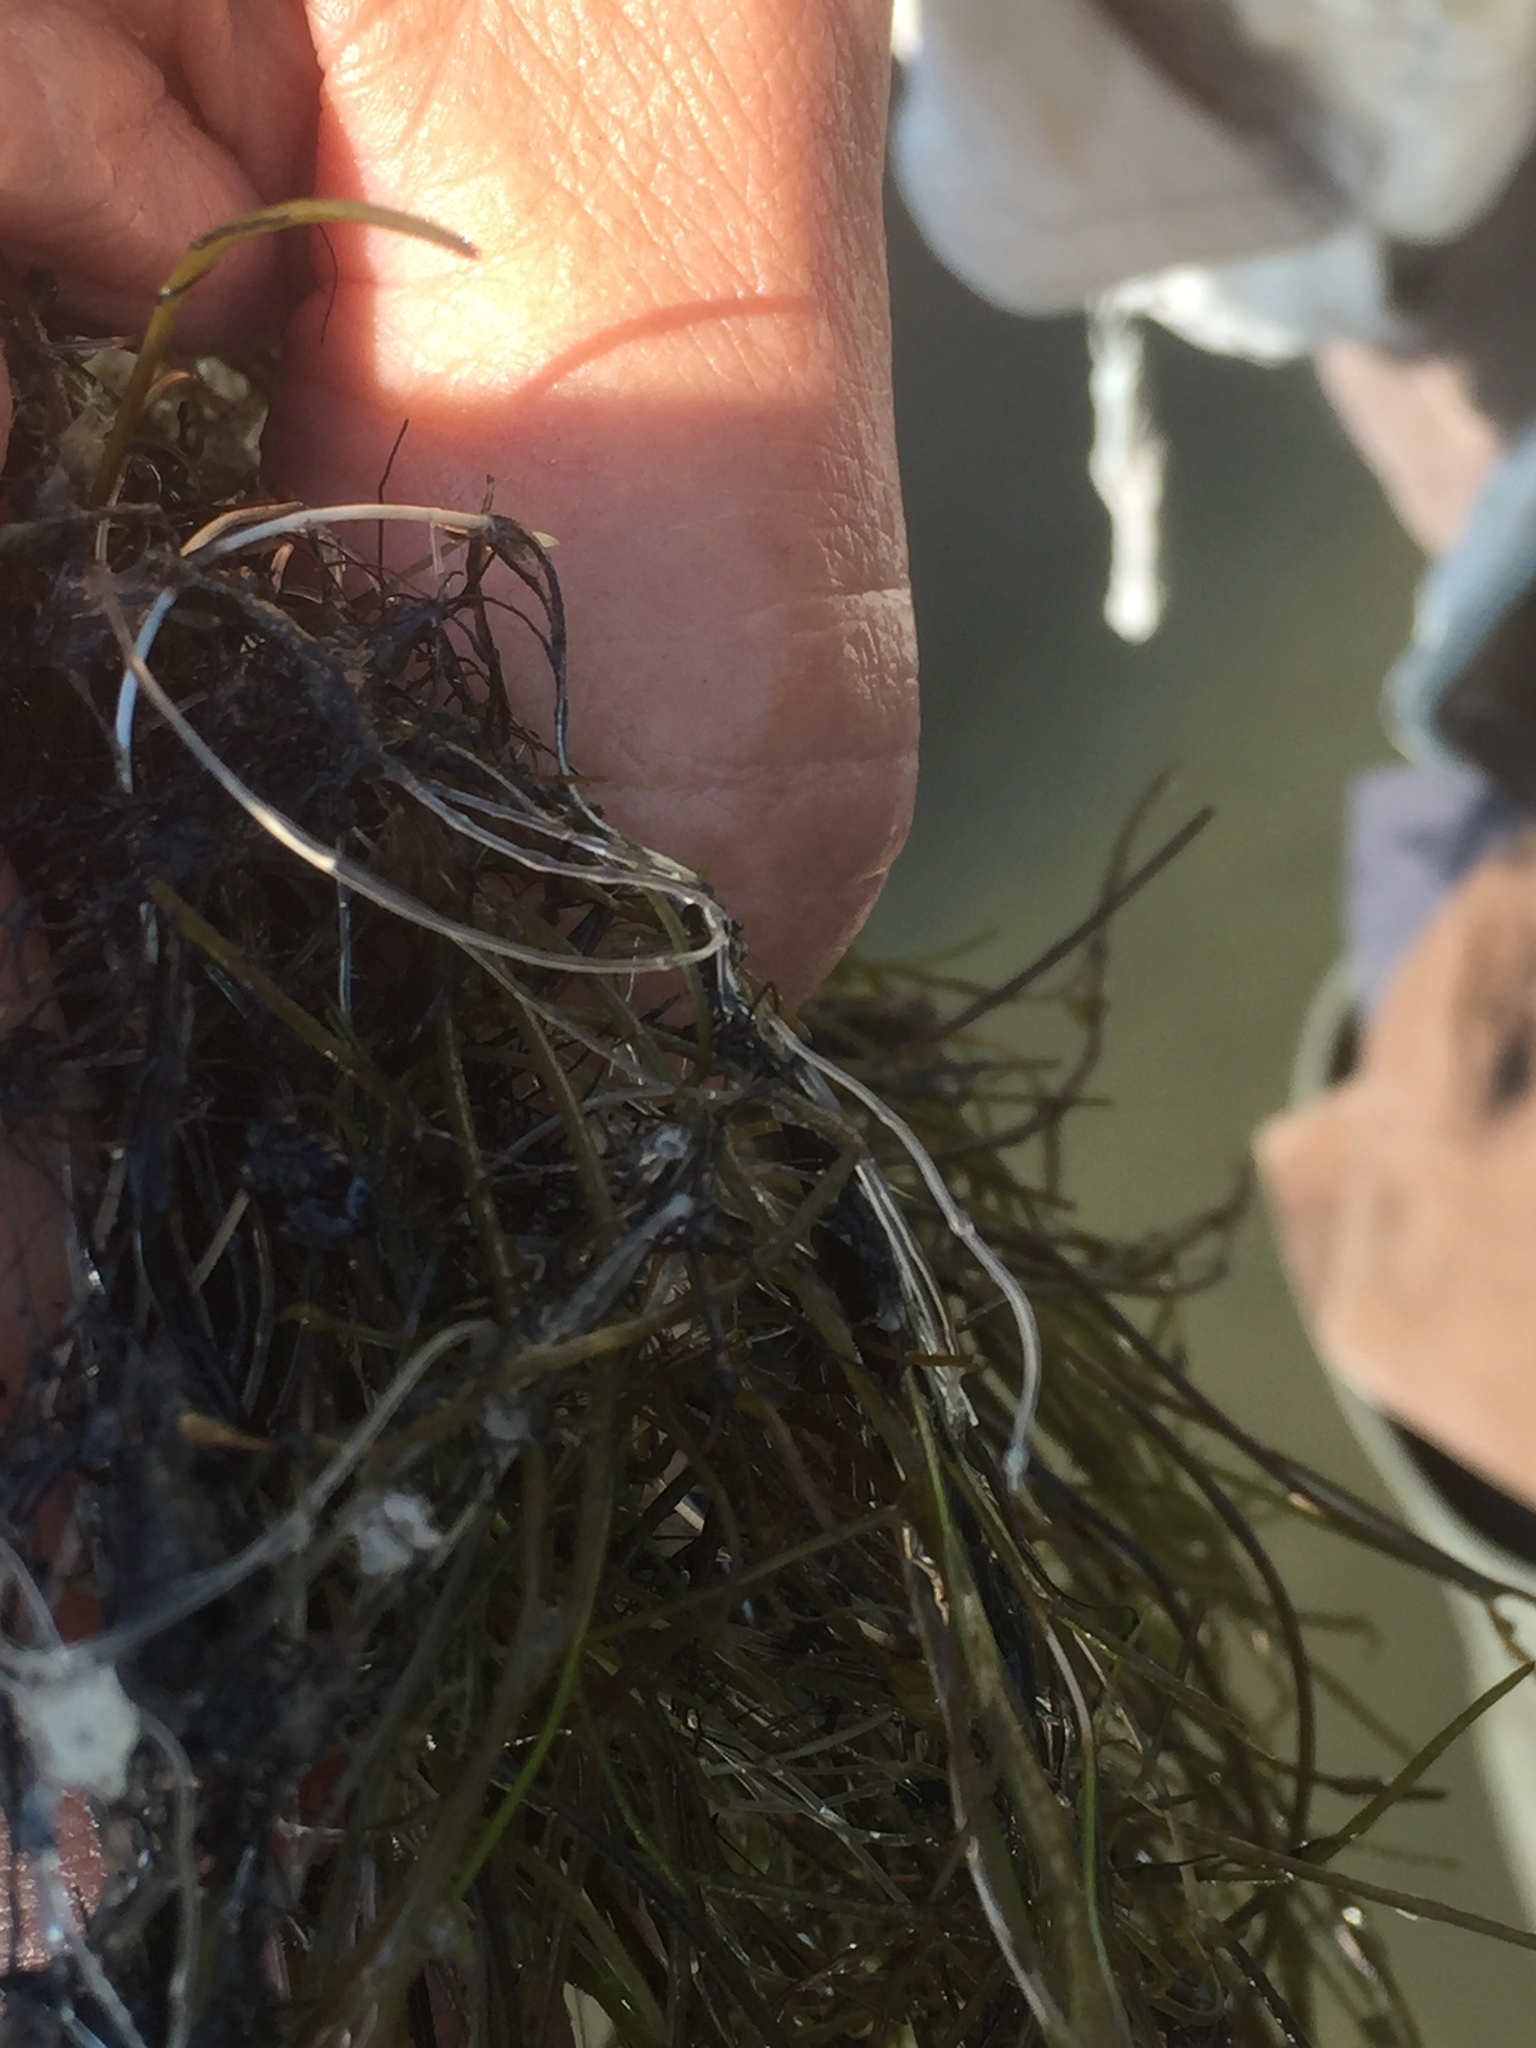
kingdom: Plantae
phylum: Charophyta
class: Charophyceae
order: Charales
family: Characeae
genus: Nitellopsis
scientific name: Nitellopsis obtusa
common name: Starry stonewort
